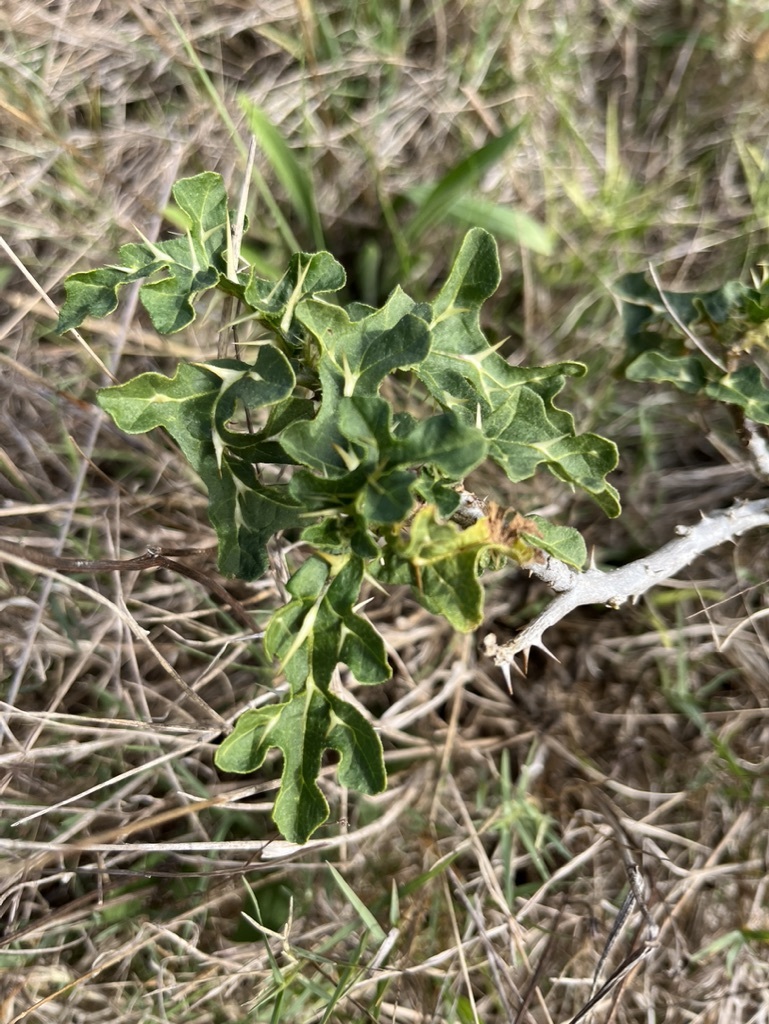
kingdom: Plantae
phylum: Tracheophyta
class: Magnoliopsida
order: Solanales
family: Solanaceae
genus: Solanum
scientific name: Solanum linnaeanum
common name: Nightshade
